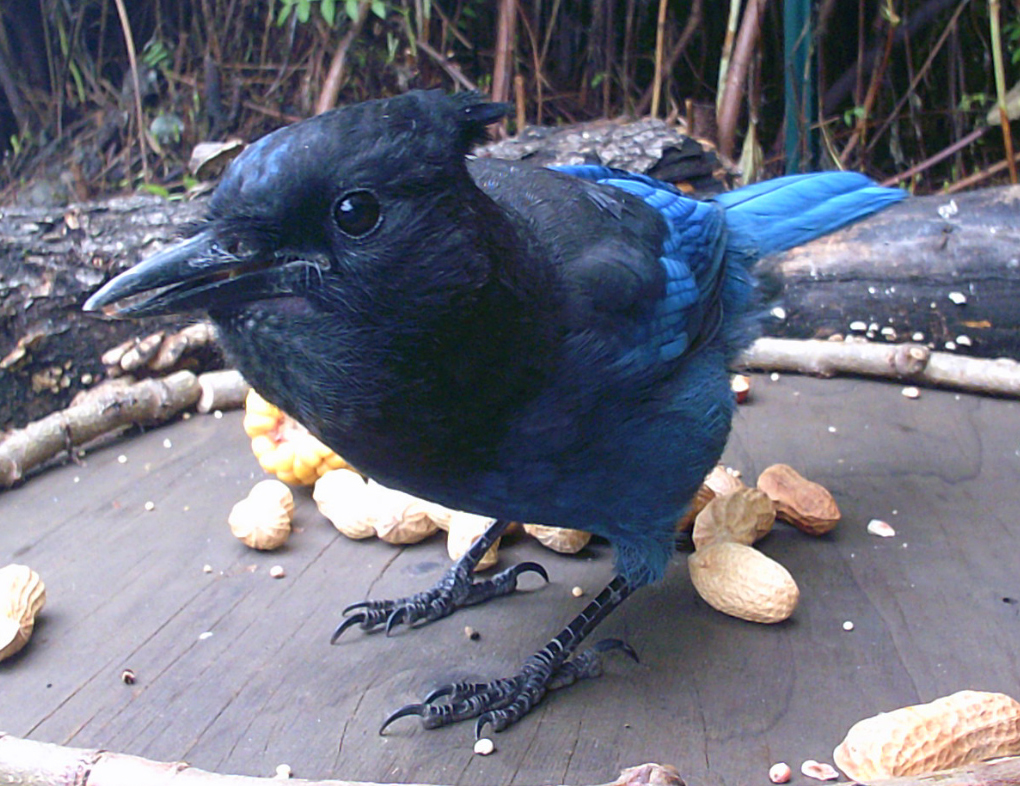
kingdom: Animalia
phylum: Chordata
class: Aves
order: Passeriformes
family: Corvidae
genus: Cyanocitta
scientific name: Cyanocitta stelleri
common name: Steller's jay
